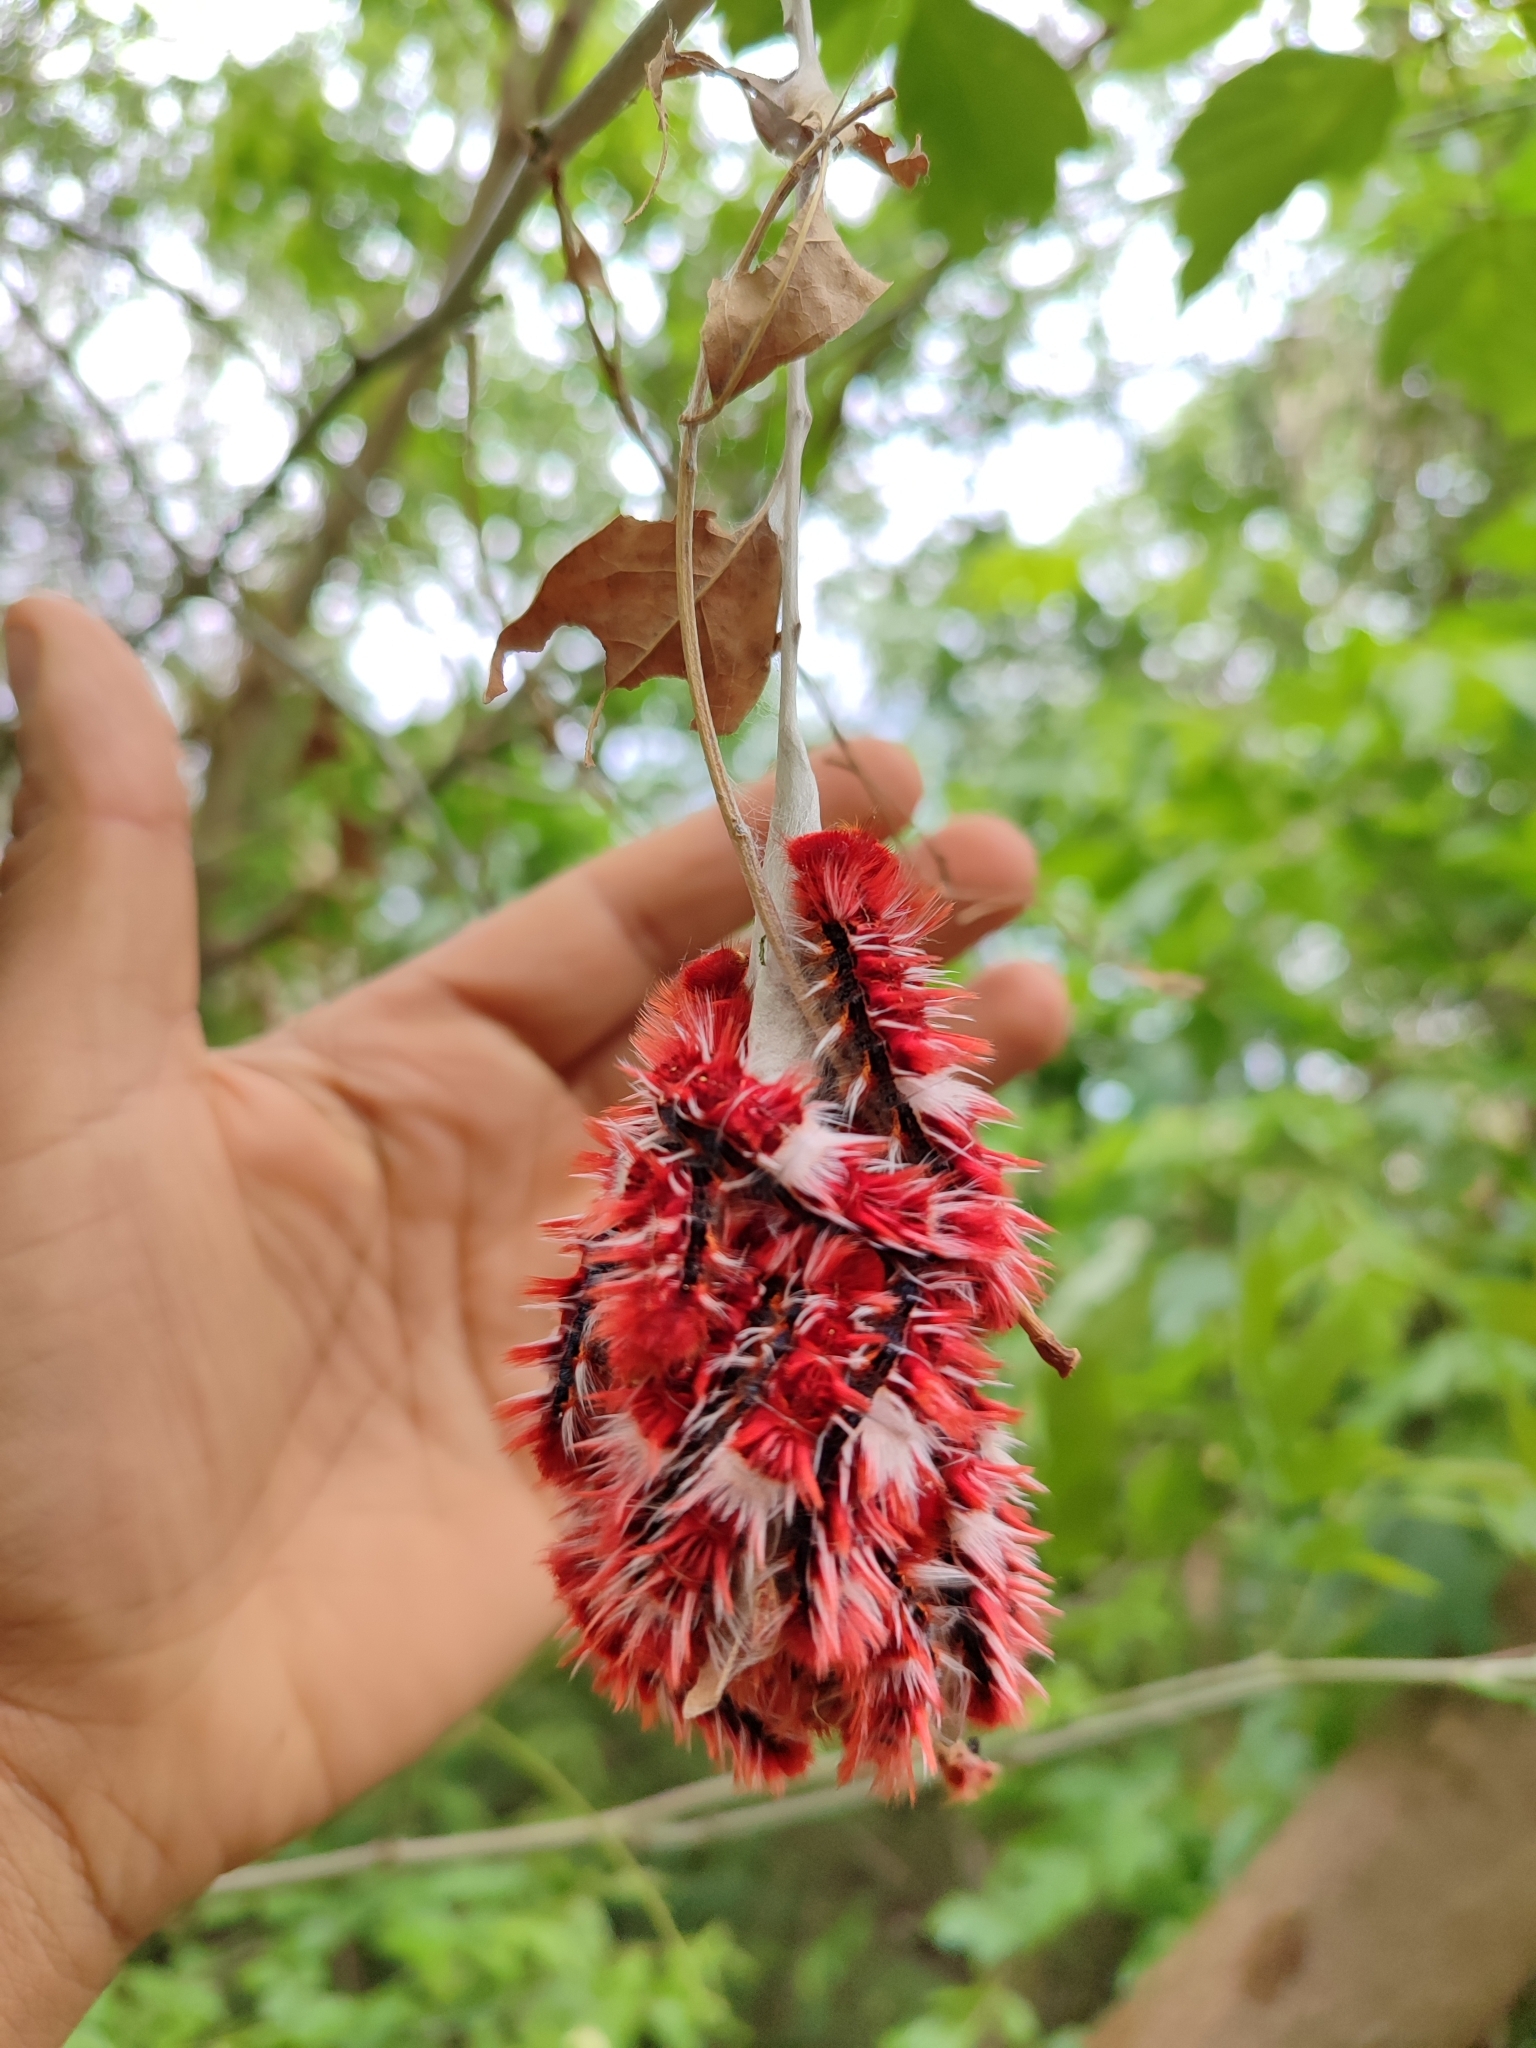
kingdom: Animalia
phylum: Arthropoda
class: Insecta
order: Lepidoptera
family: Nymphalidae
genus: Morpho
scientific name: Morpho epistrophus
